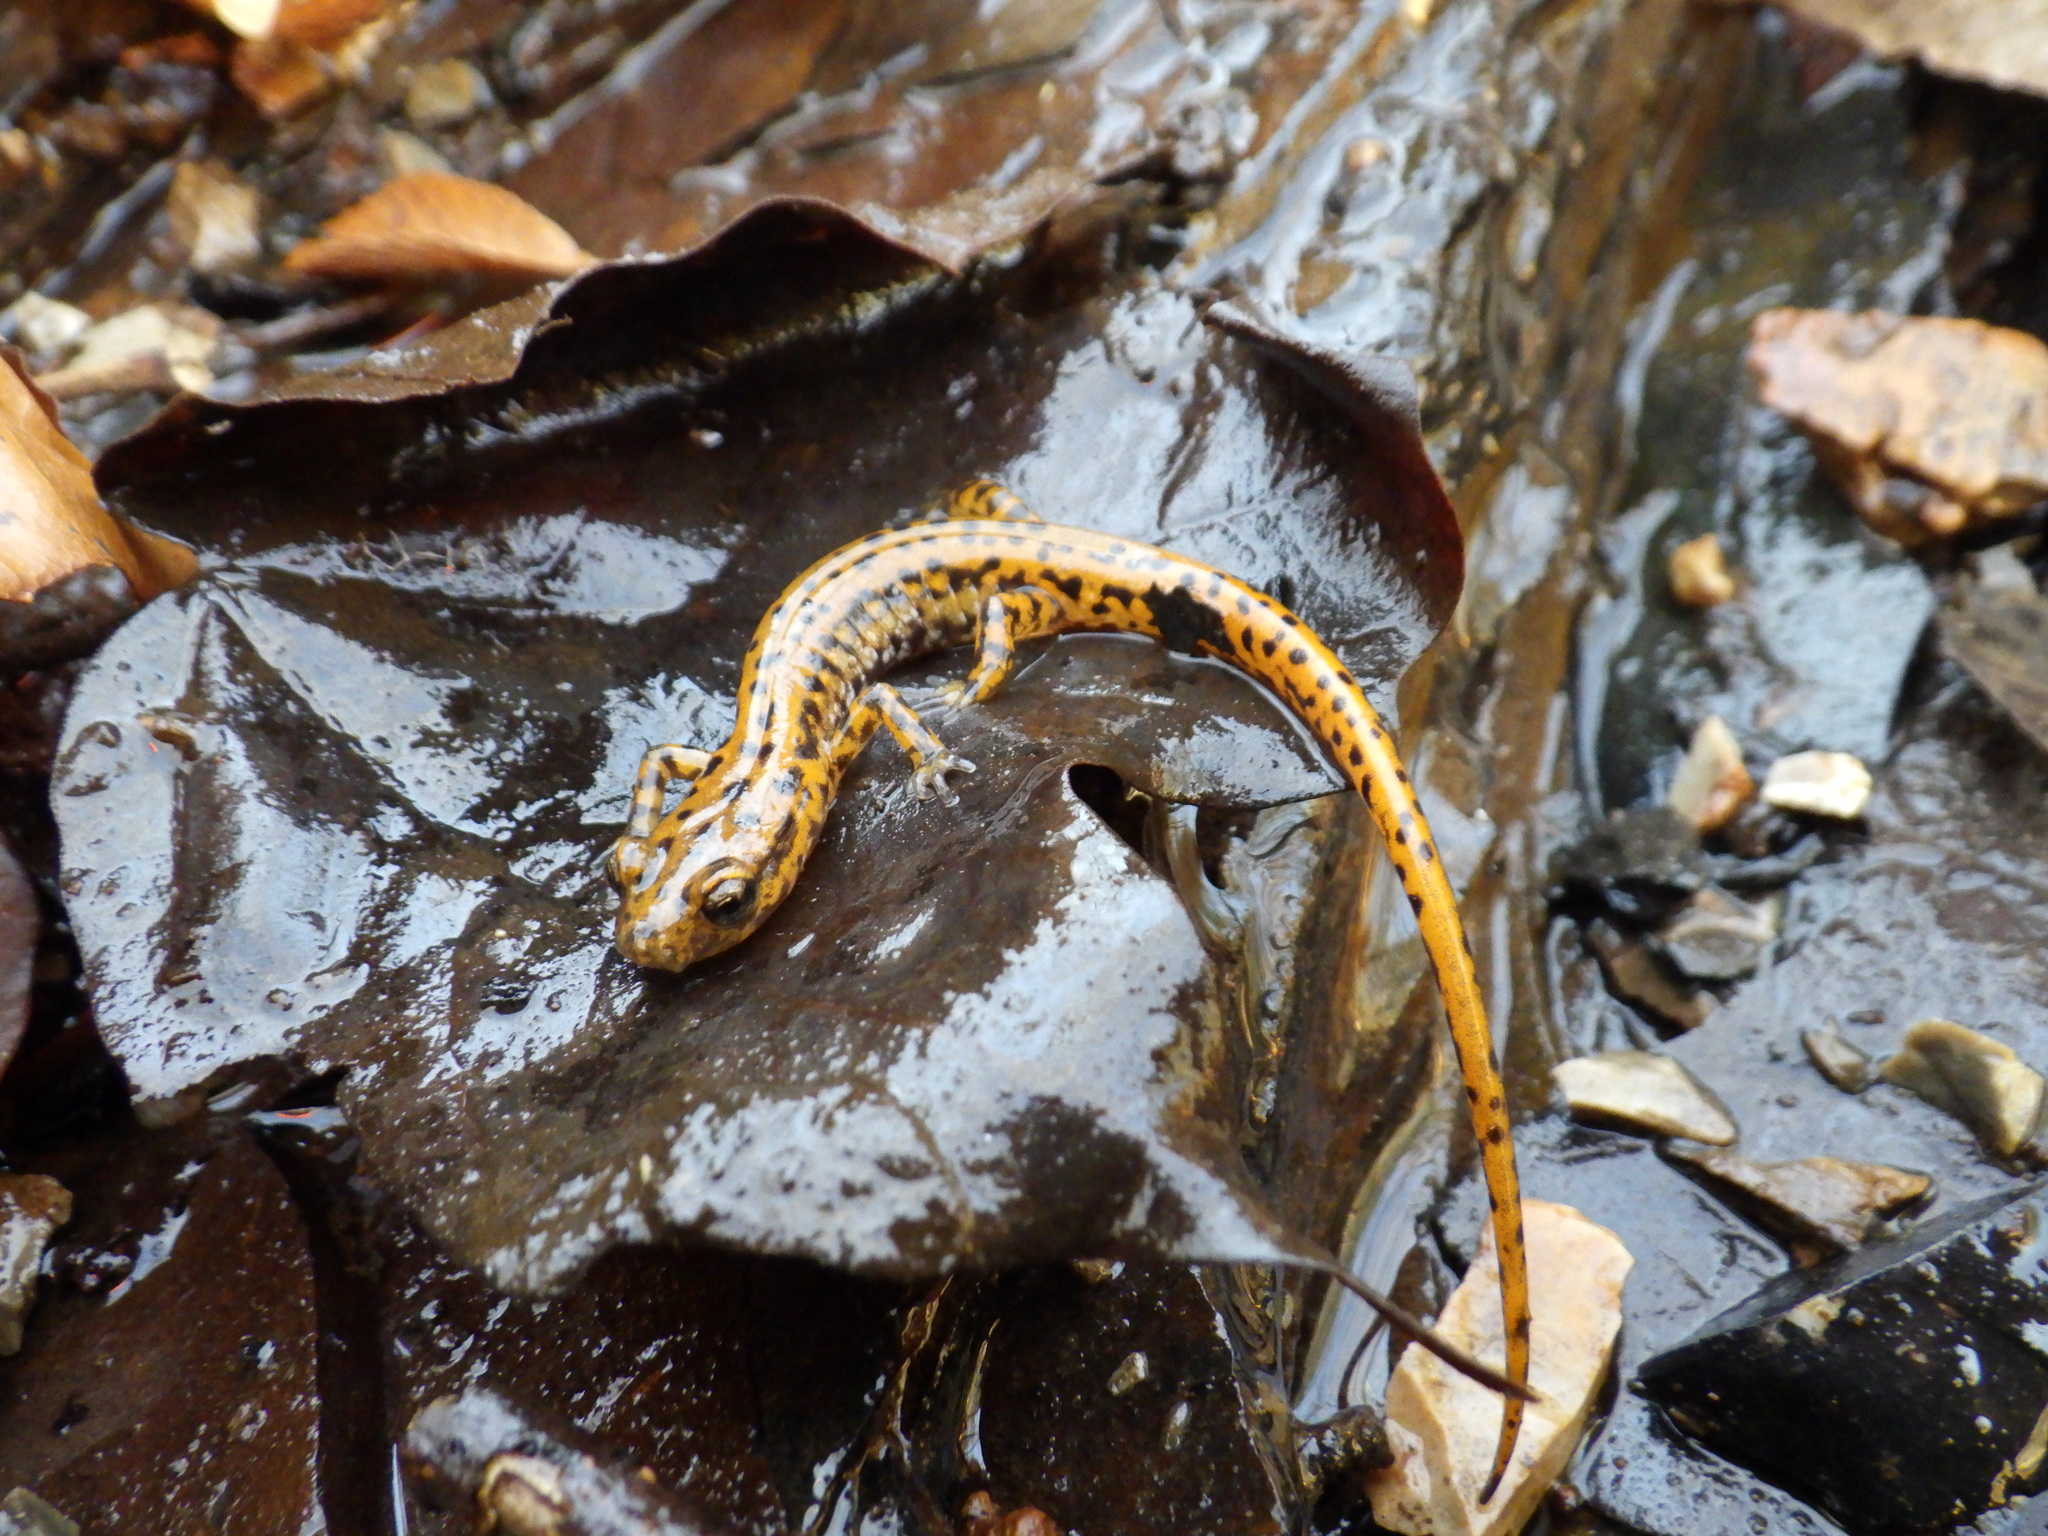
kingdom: Animalia
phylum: Chordata
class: Amphibia
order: Caudata
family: Plethodontidae
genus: Eurycea
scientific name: Eurycea lucifuga
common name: Cave salamander
